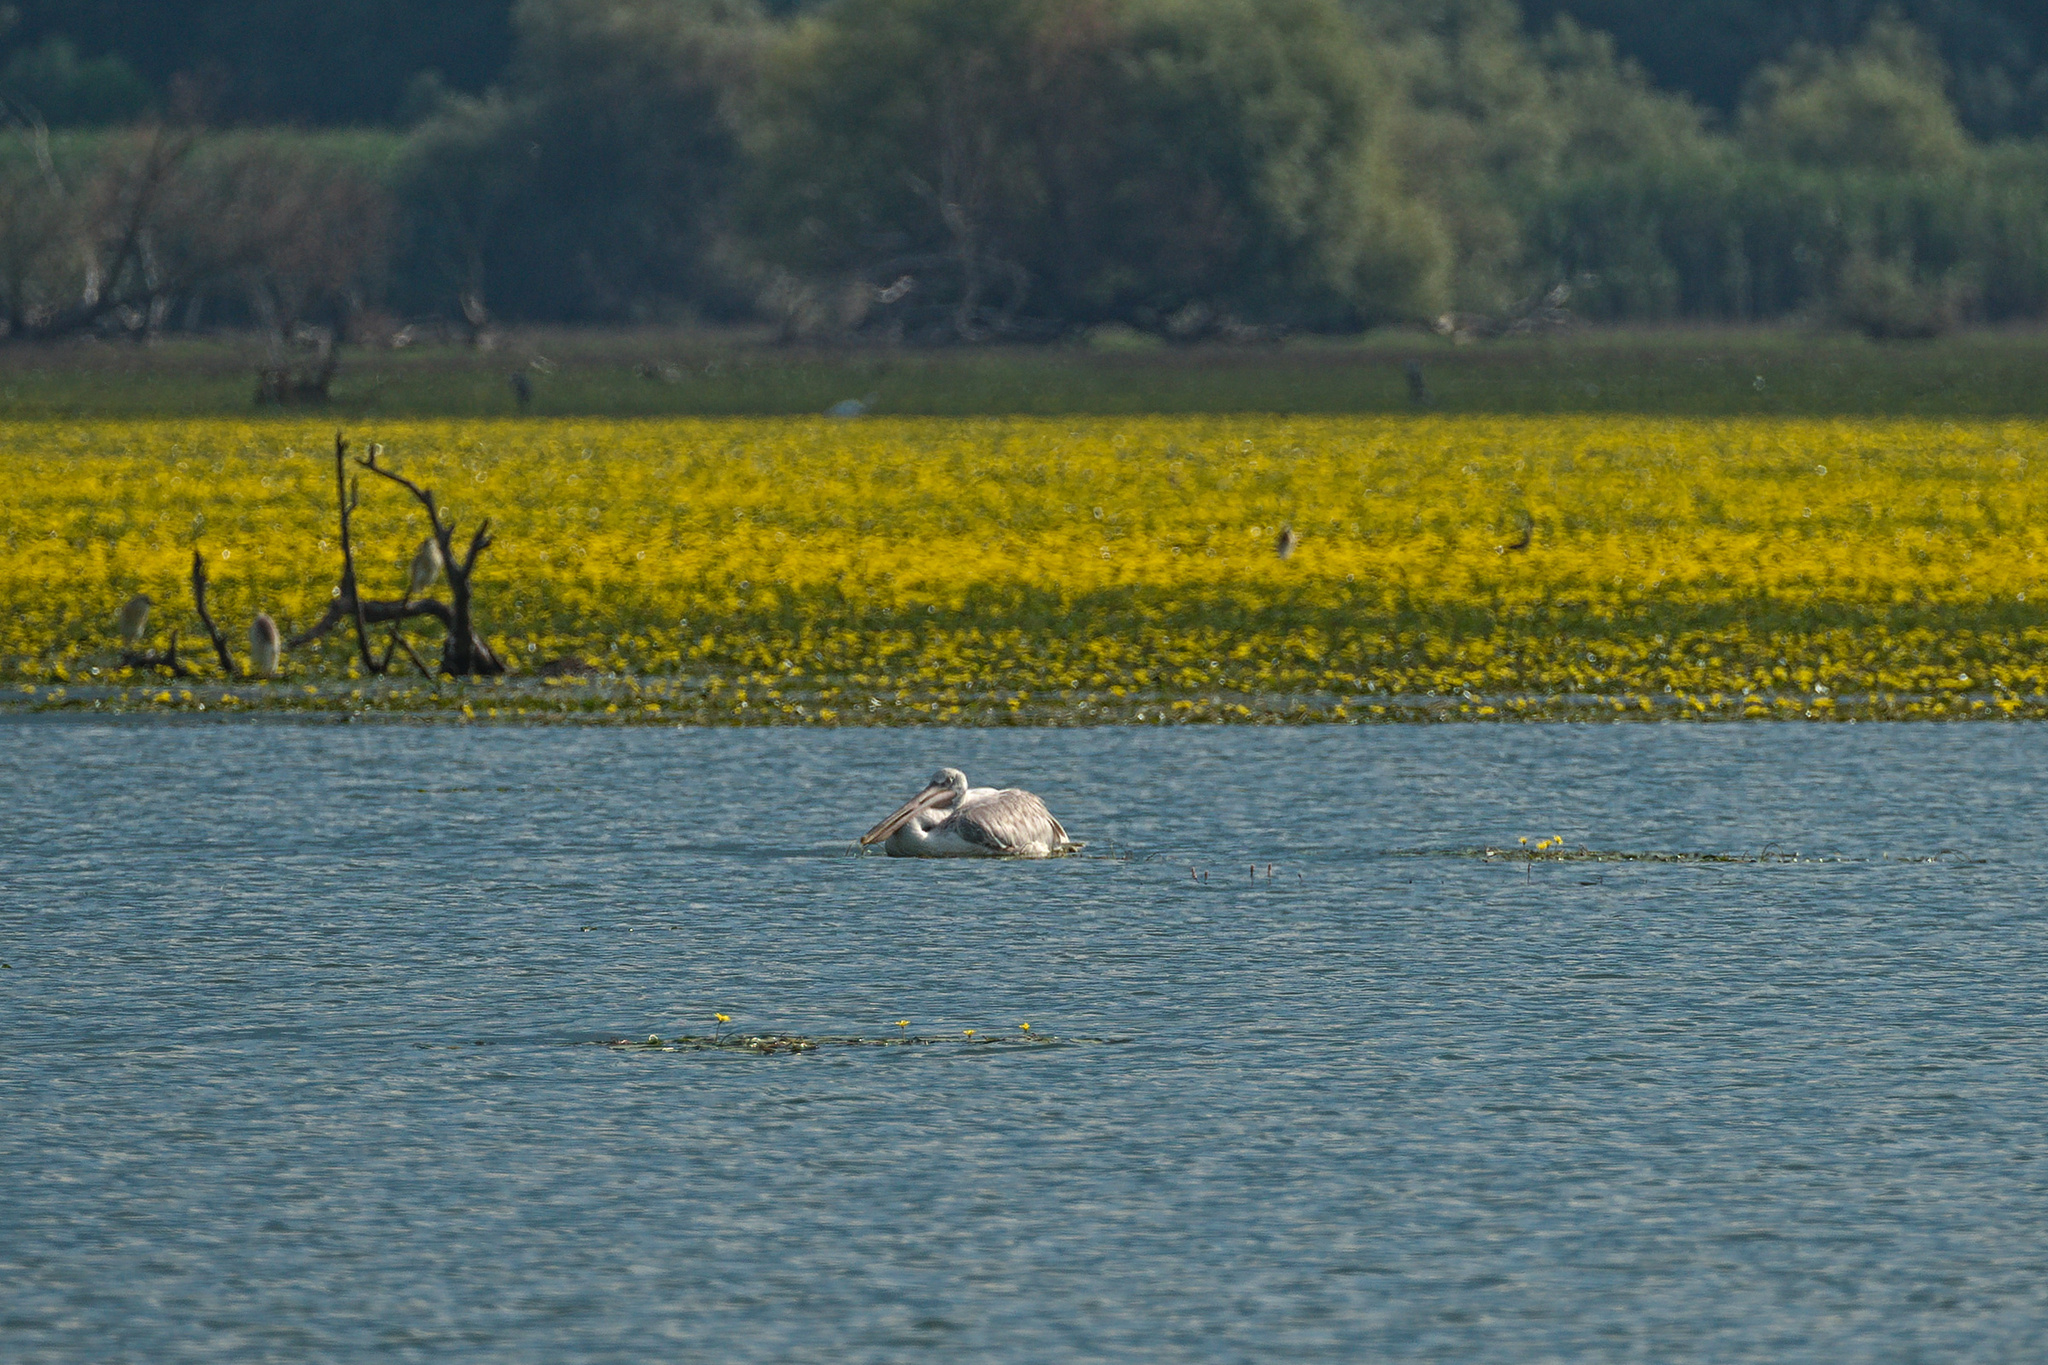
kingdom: Animalia
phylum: Chordata
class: Aves
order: Pelecaniformes
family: Pelecanidae
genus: Pelecanus
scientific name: Pelecanus crispus
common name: Dalmatian pelican
